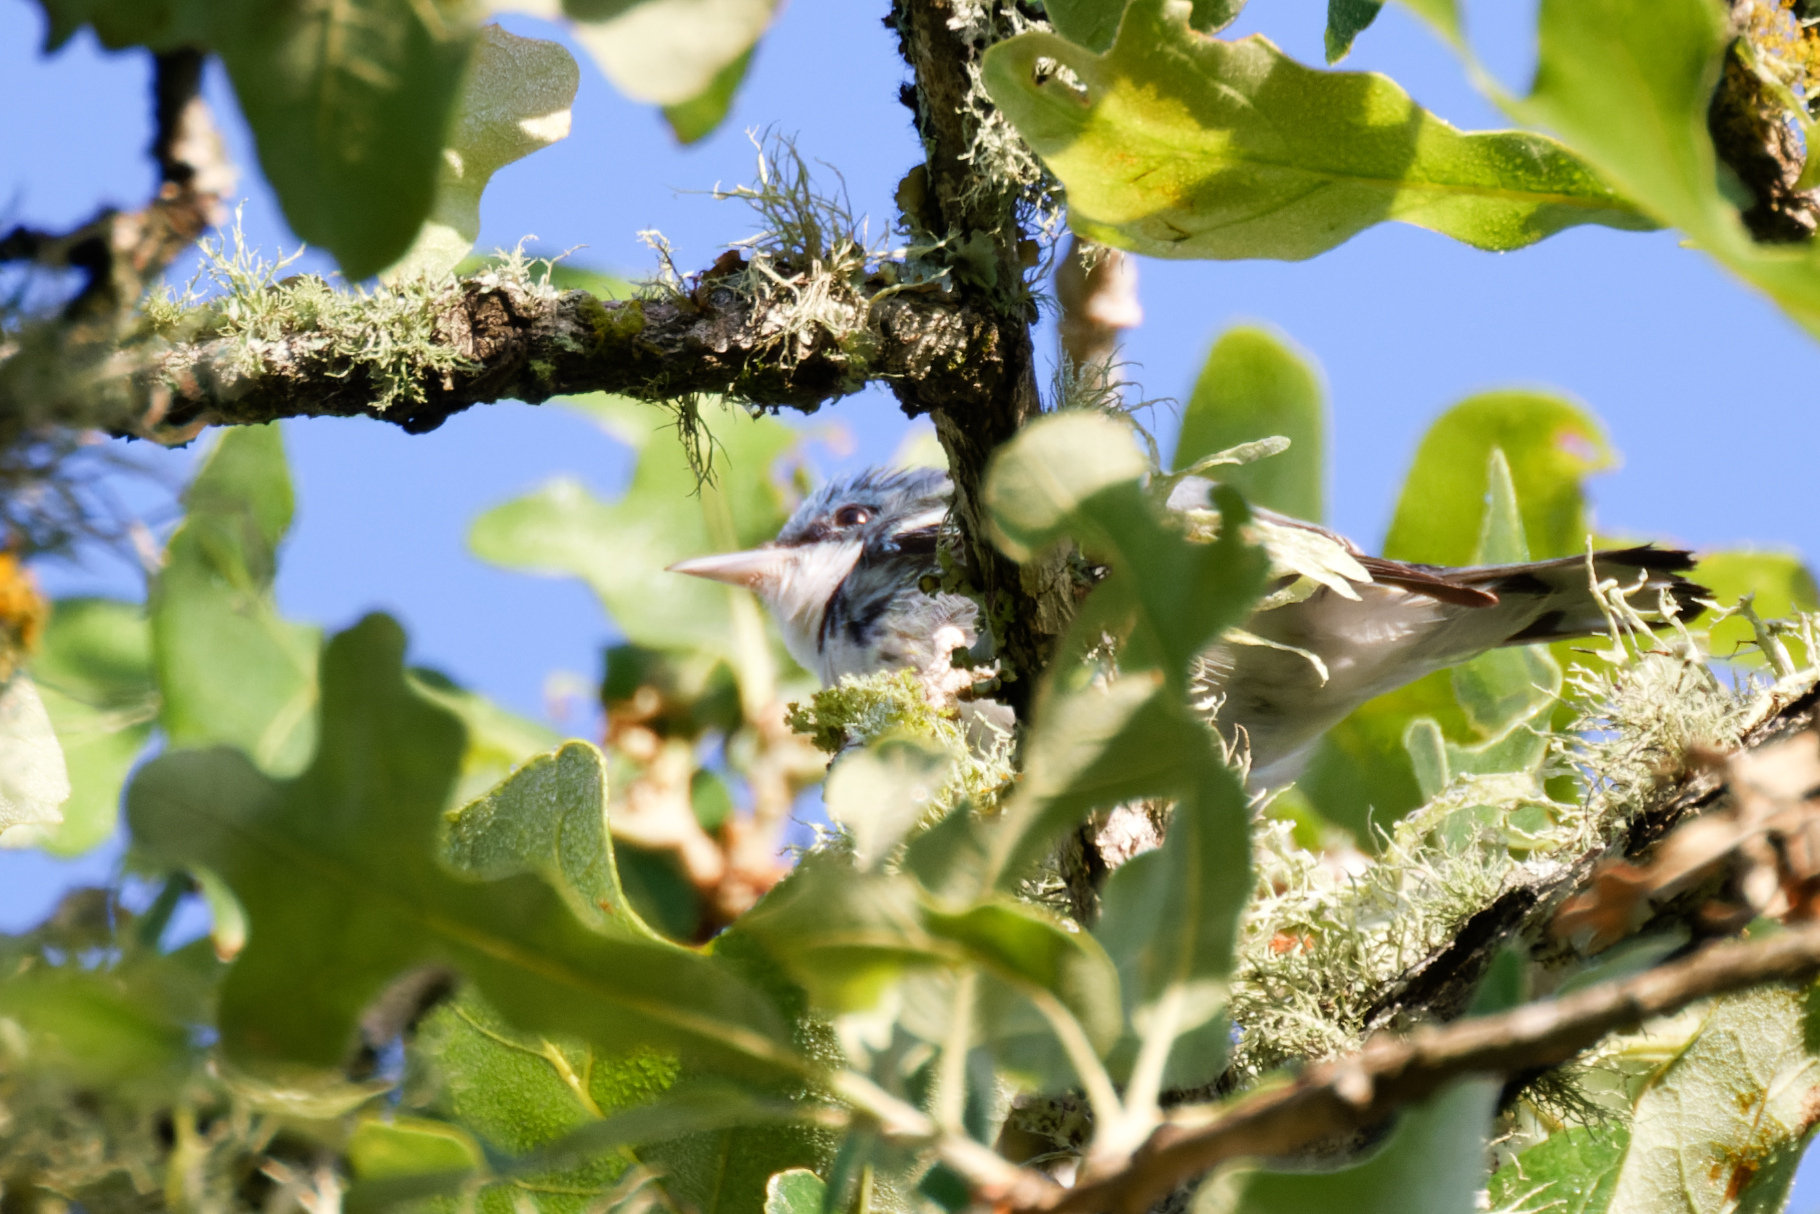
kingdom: Animalia
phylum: Chordata
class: Aves
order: Passeriformes
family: Parulidae
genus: Setophaga
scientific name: Setophaga cerulea
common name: Cerulean warbler
